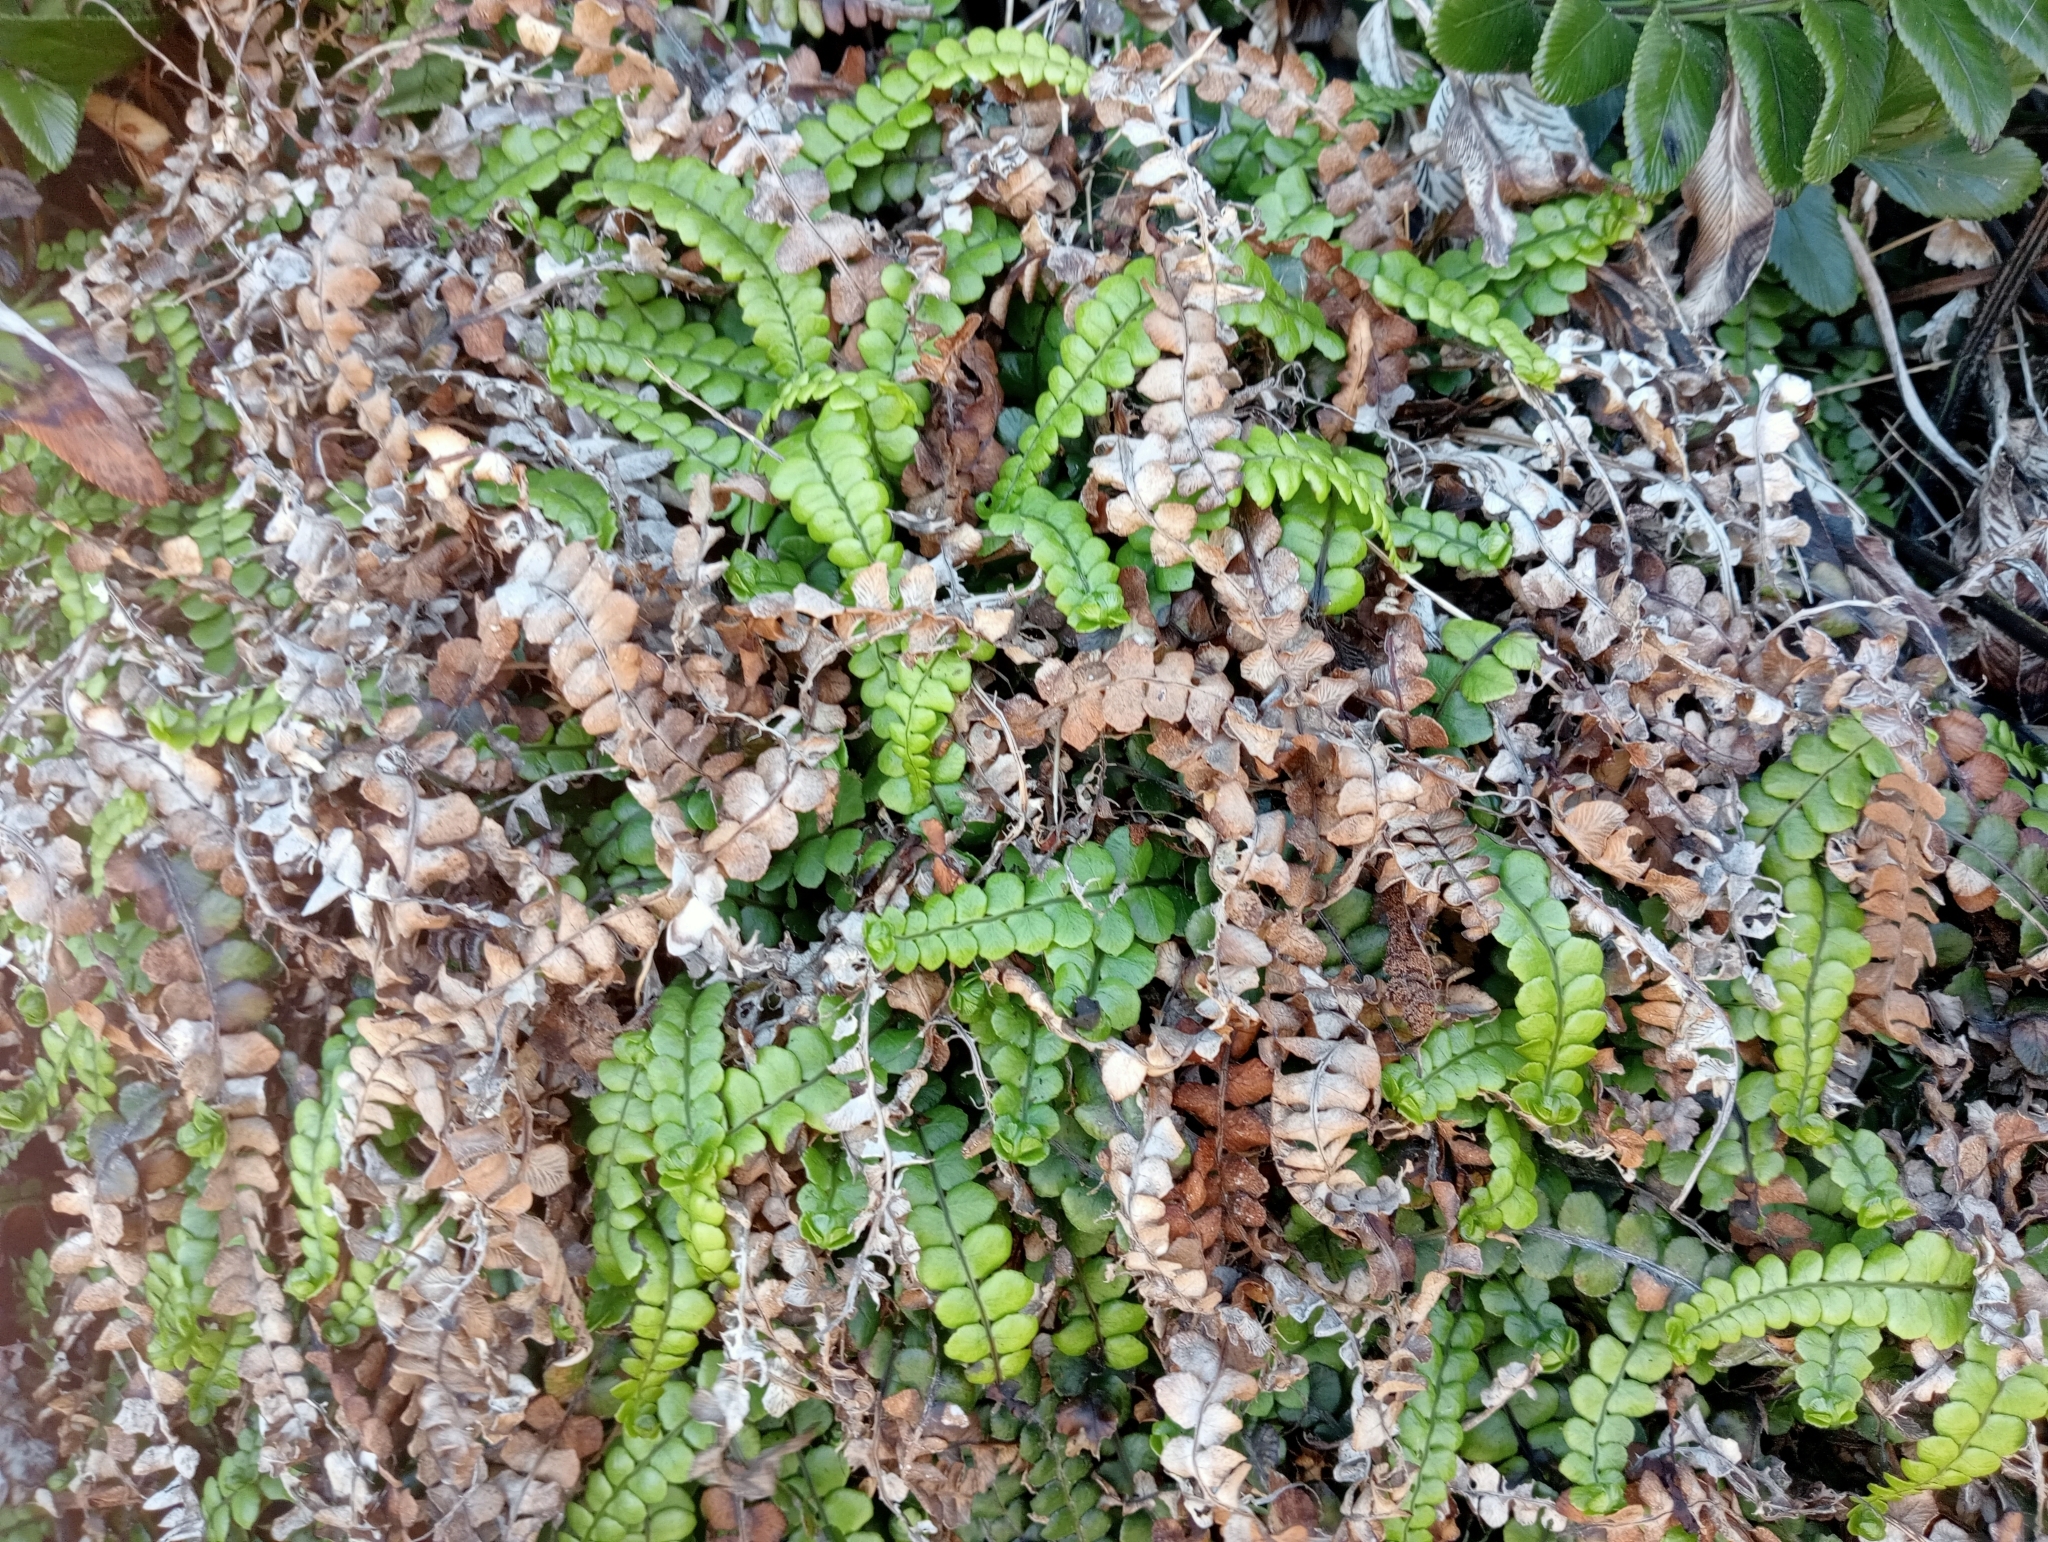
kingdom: Plantae
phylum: Tracheophyta
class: Polypodiopsida
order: Polypodiales
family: Blechnaceae
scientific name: Blechnaceae
